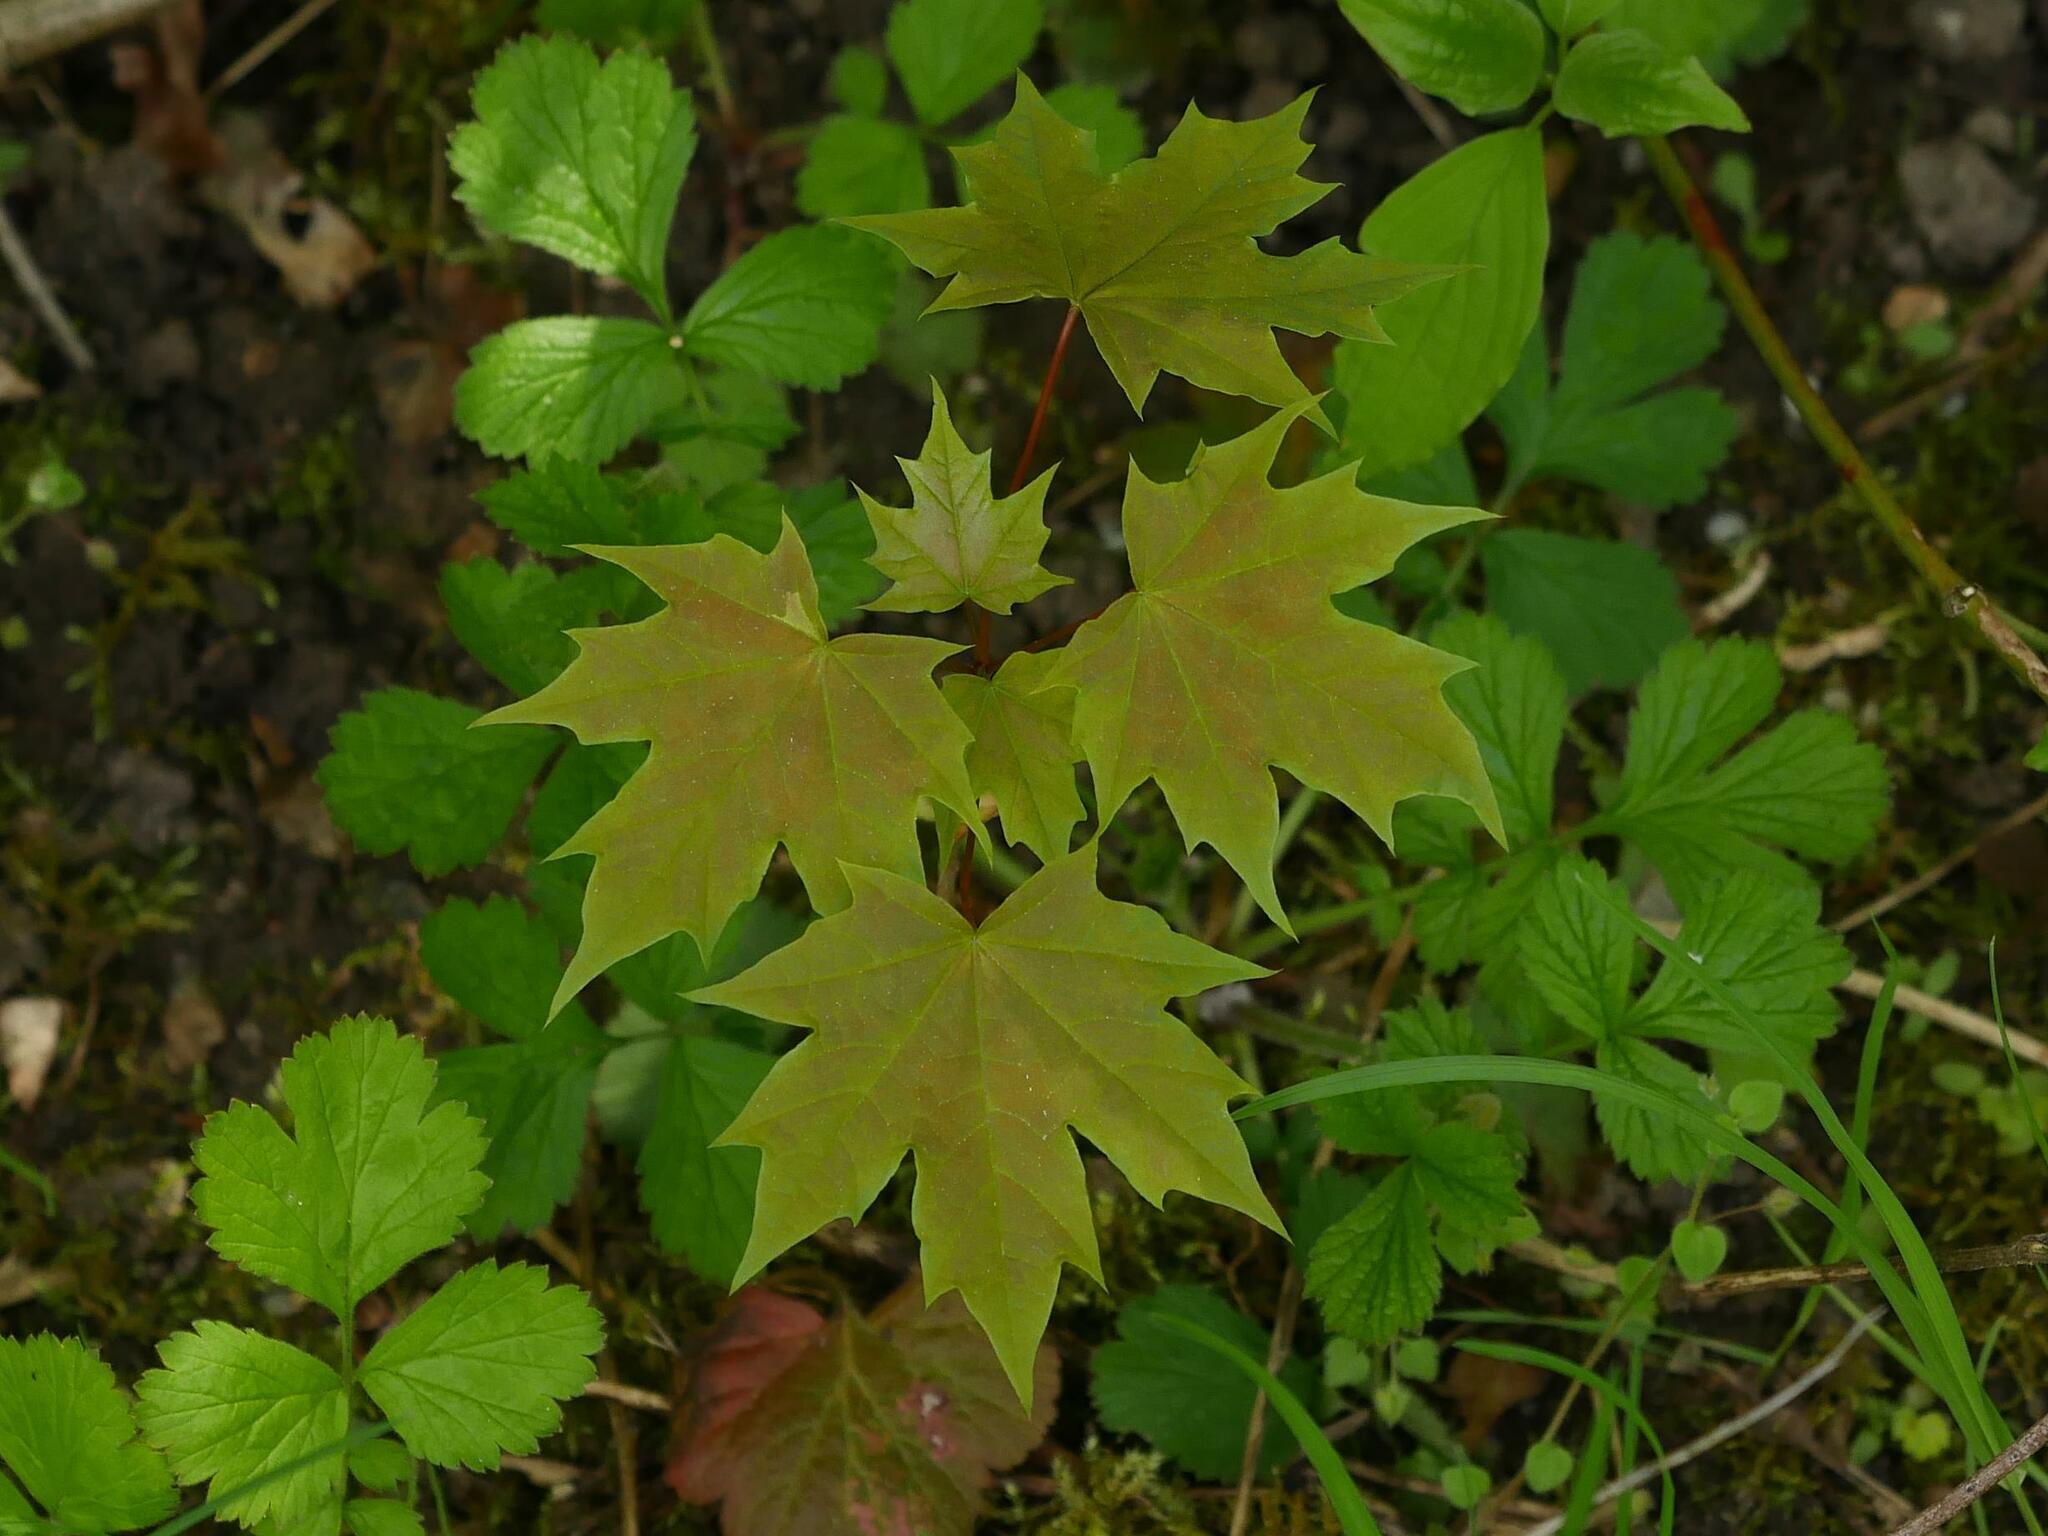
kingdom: Plantae
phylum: Tracheophyta
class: Magnoliopsida
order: Sapindales
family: Sapindaceae
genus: Acer
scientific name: Acer platanoides
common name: Norway maple
